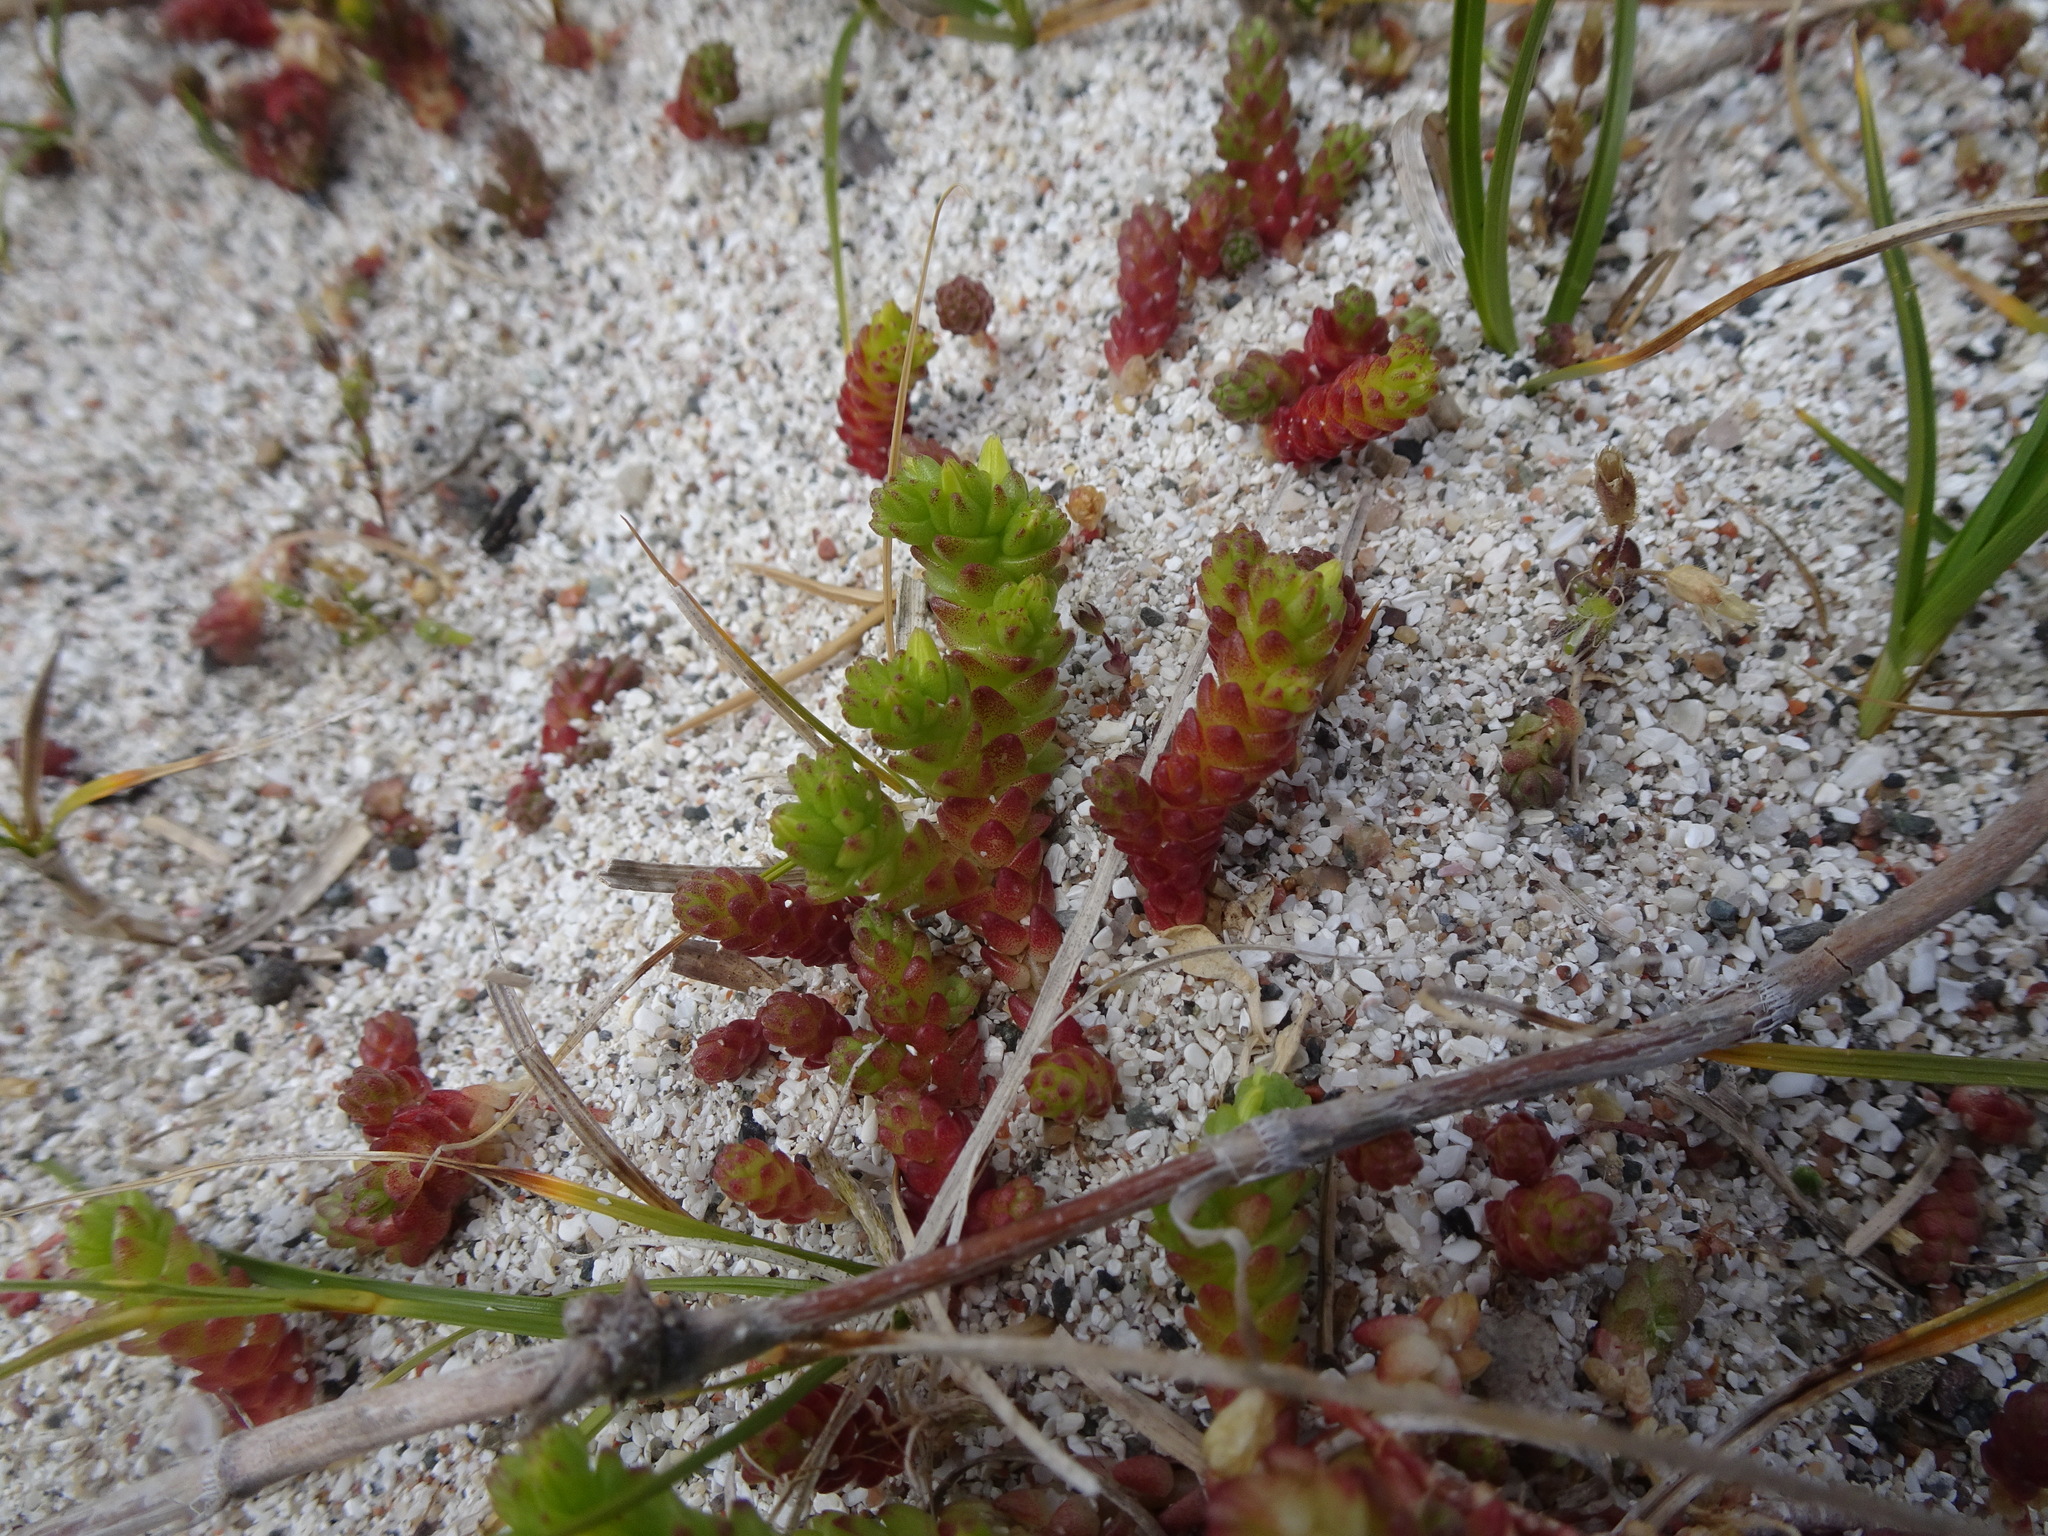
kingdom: Plantae
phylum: Tracheophyta
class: Magnoliopsida
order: Saxifragales
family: Crassulaceae
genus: Sedum
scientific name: Sedum acre
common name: Biting stonecrop
